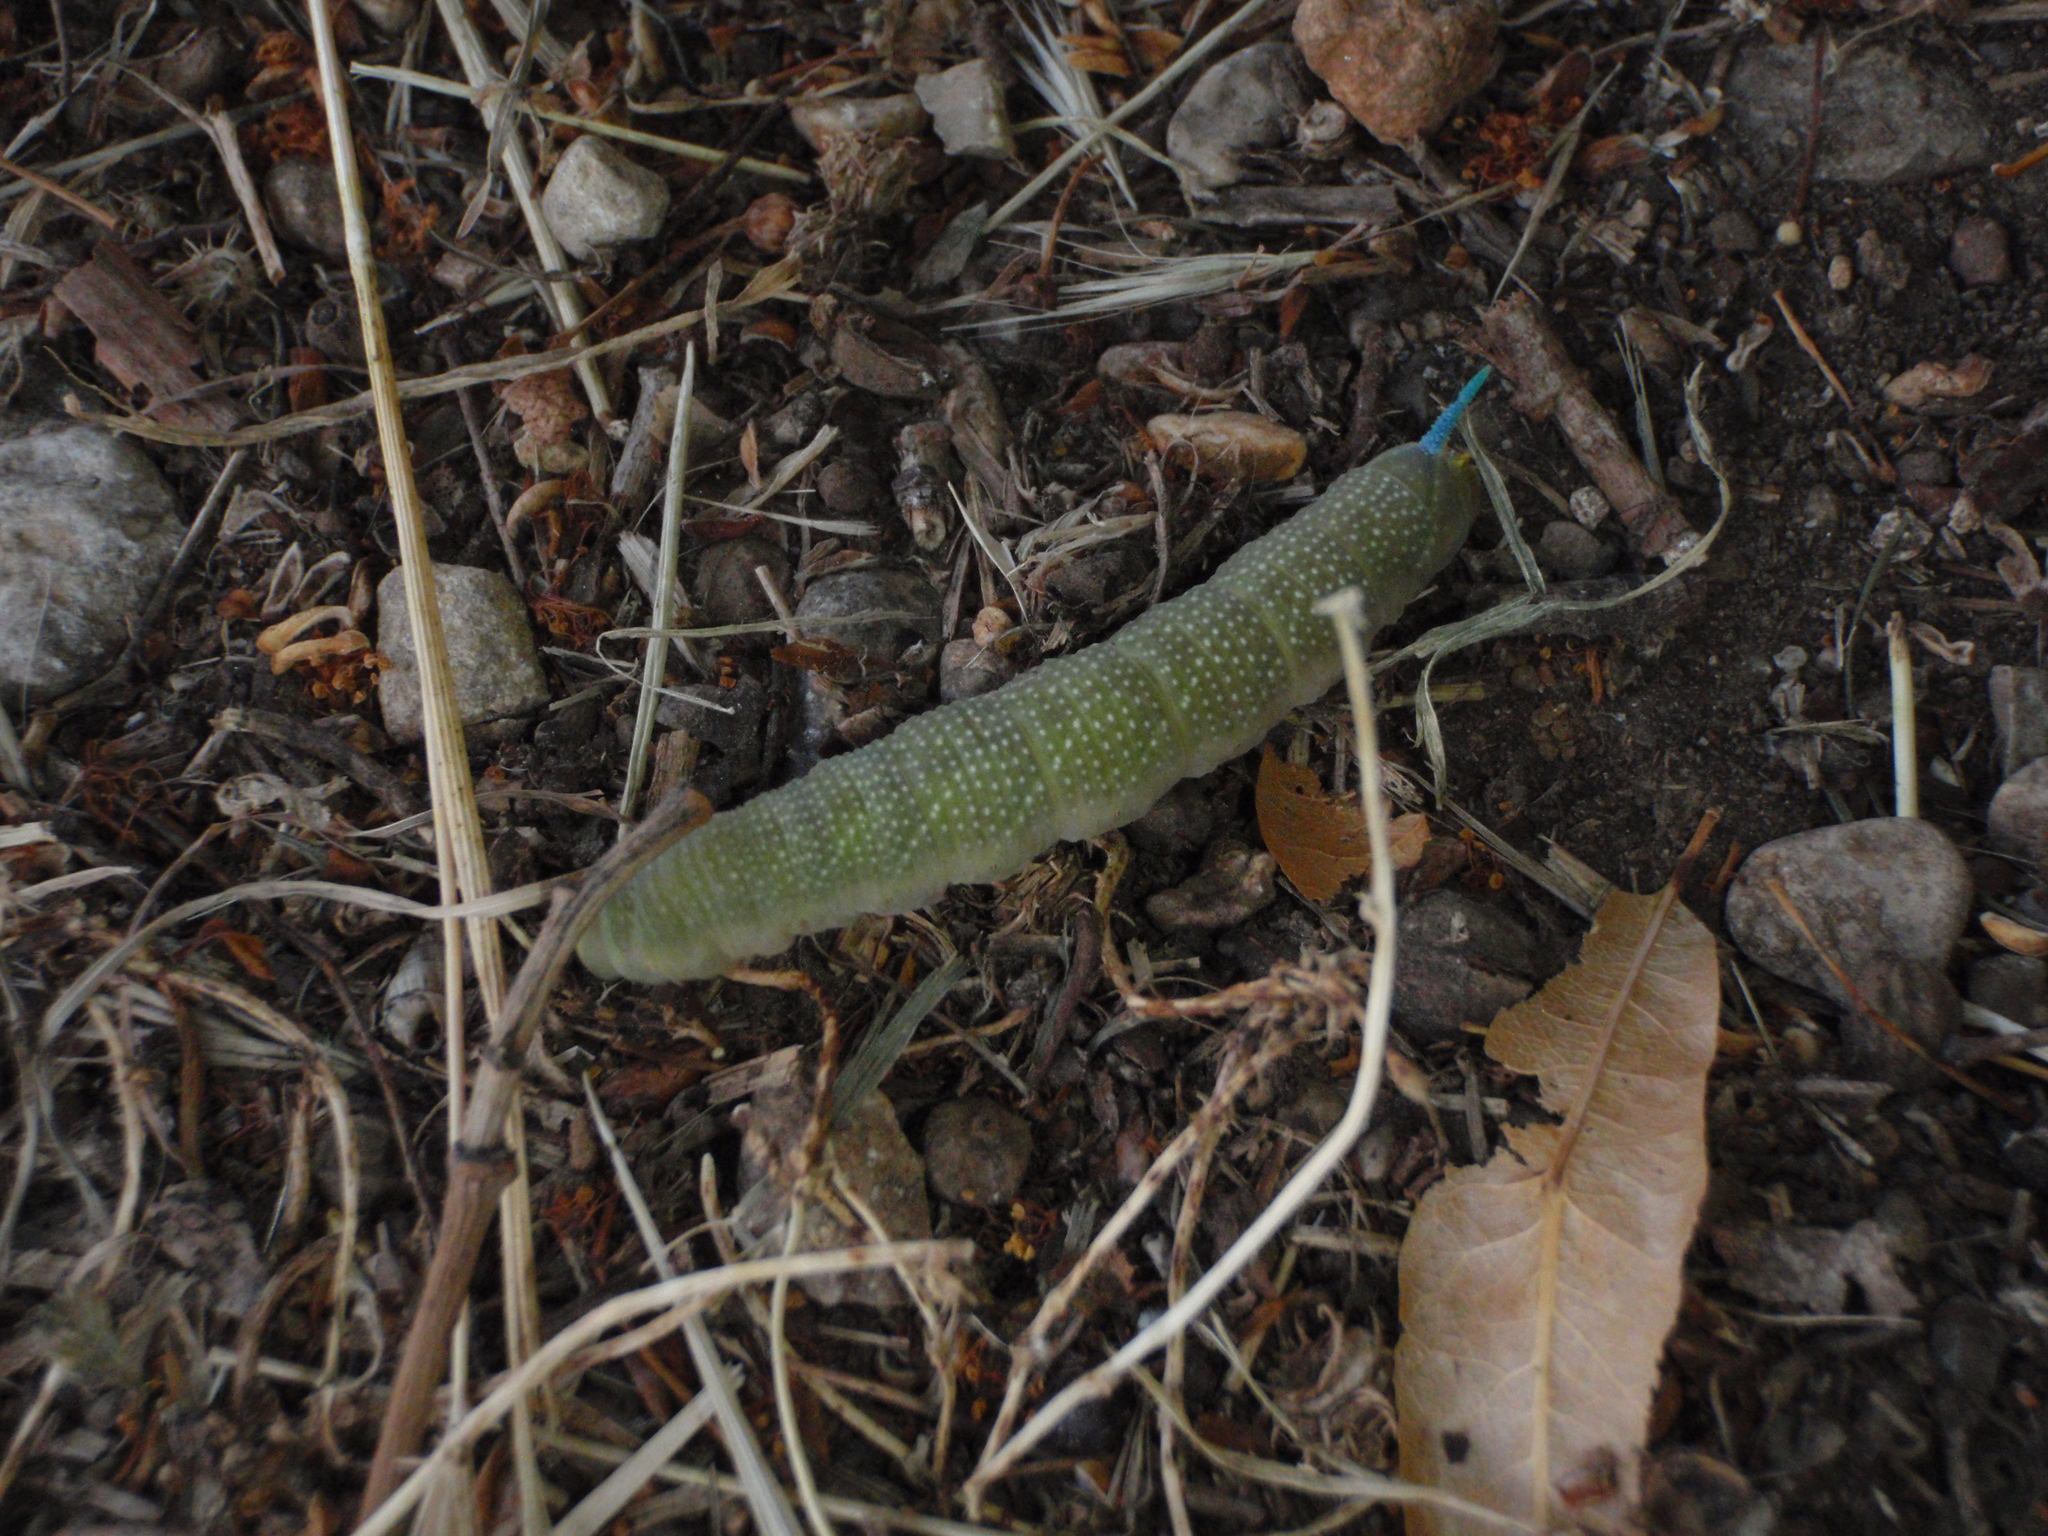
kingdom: Animalia
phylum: Arthropoda
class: Insecta
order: Lepidoptera
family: Sphingidae
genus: Mimas
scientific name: Mimas tiliae
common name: Lime hawk-moth
